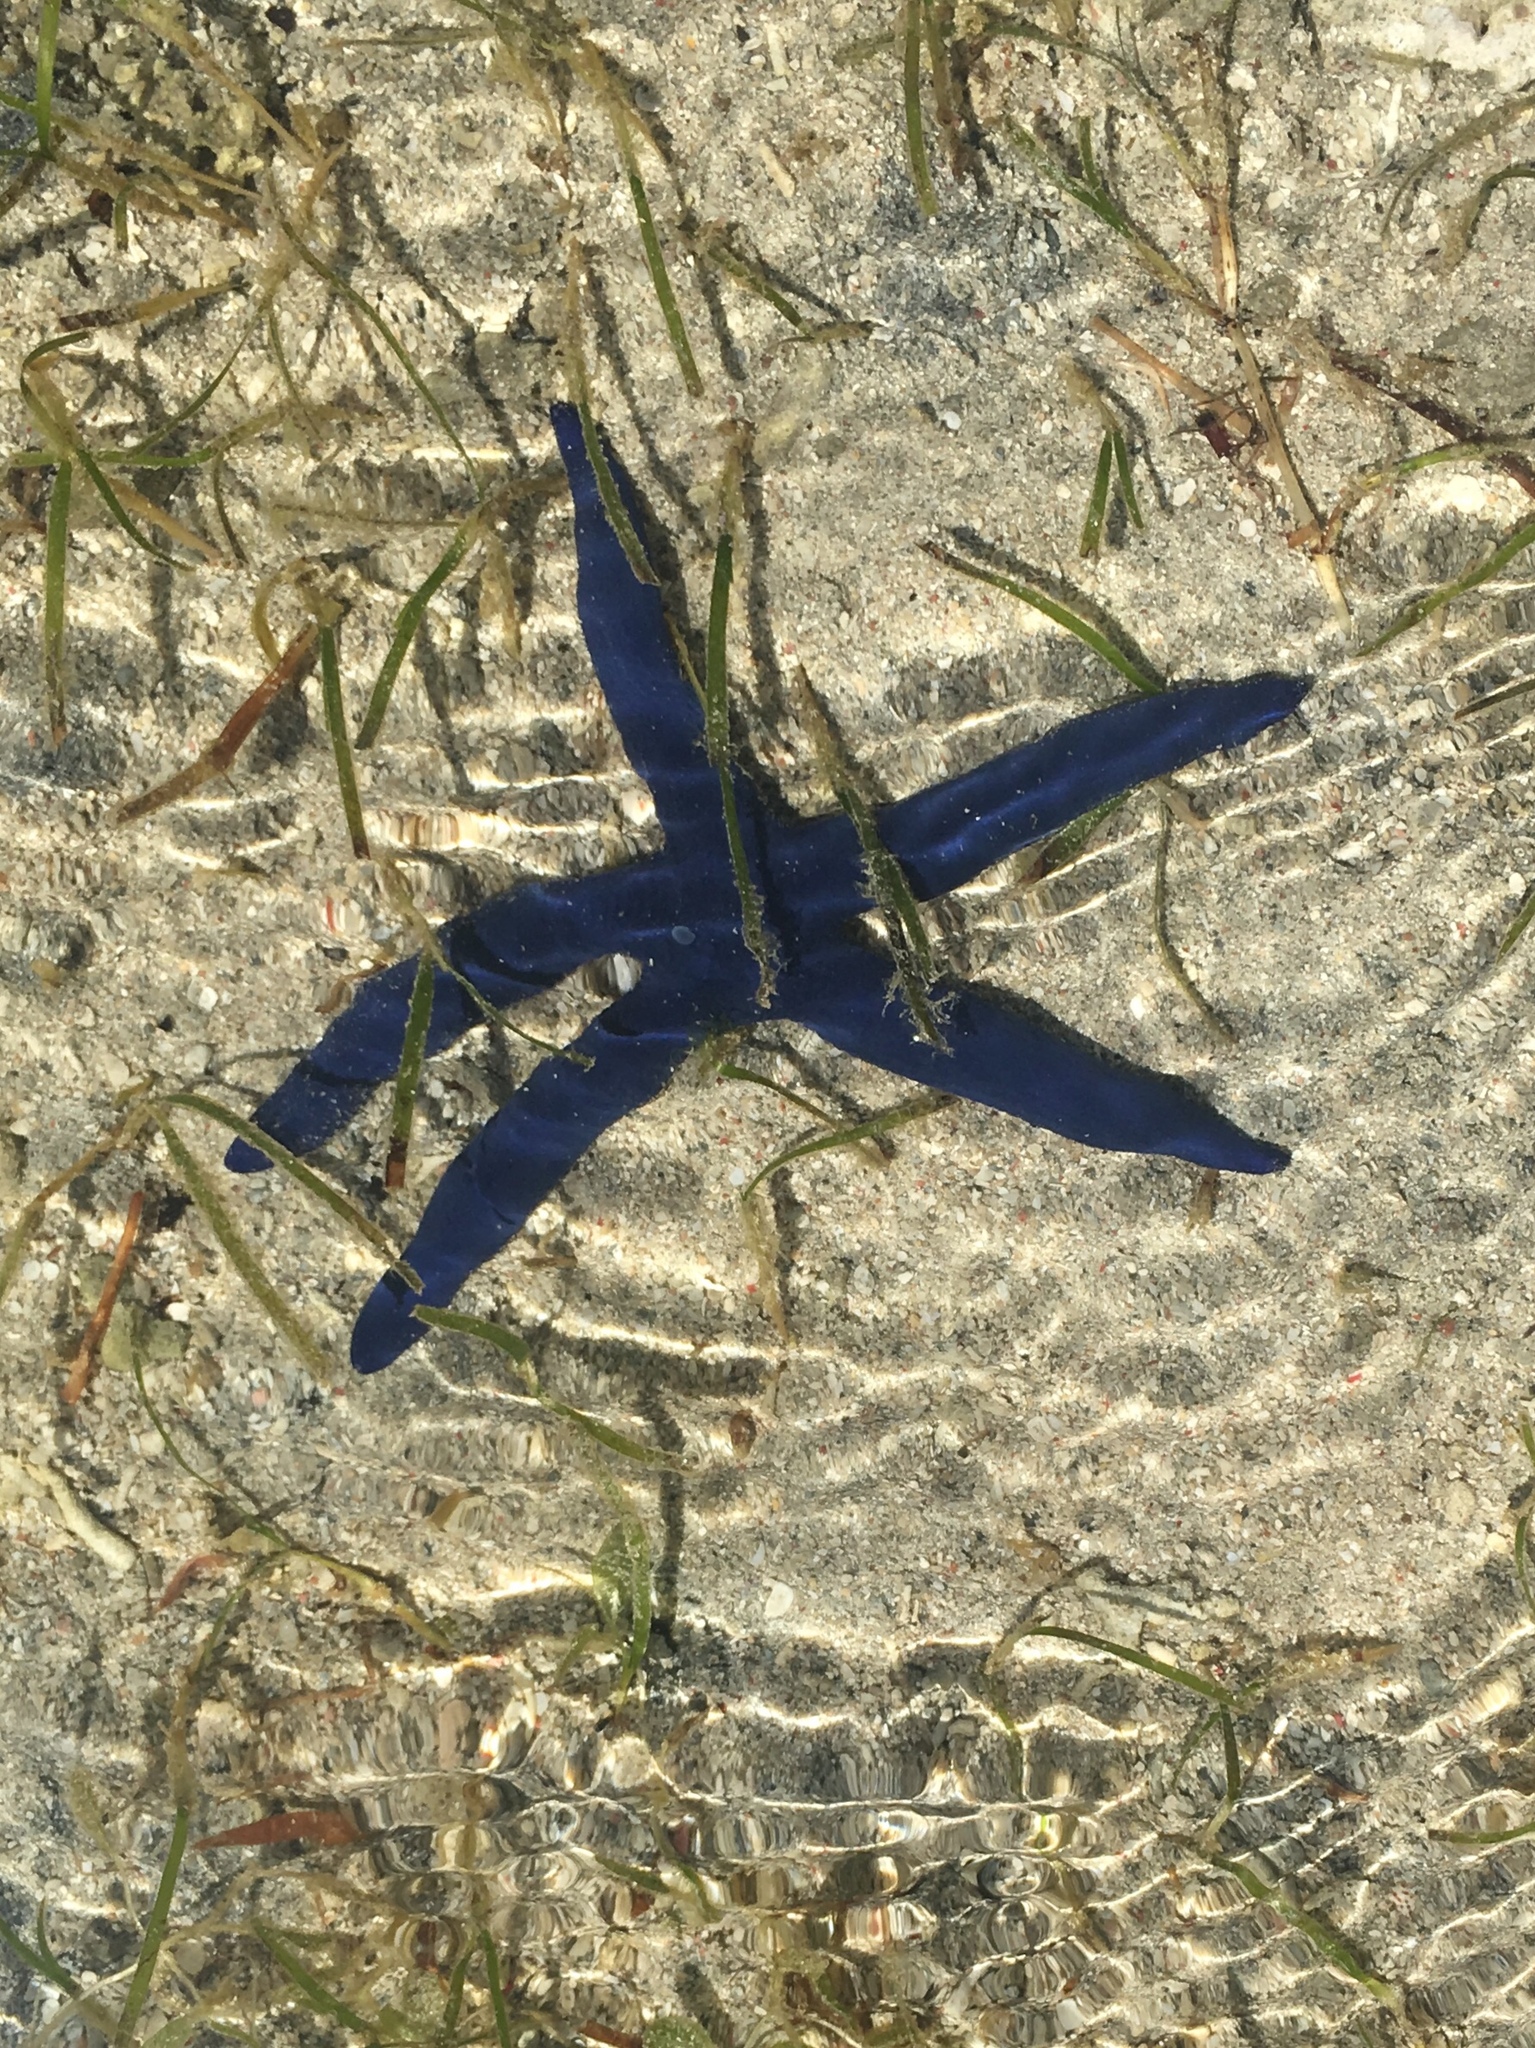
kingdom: Animalia
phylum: Echinodermata
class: Asteroidea
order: Valvatida
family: Ophidiasteridae
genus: Linckia
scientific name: Linckia laevigata
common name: Azure sea star
